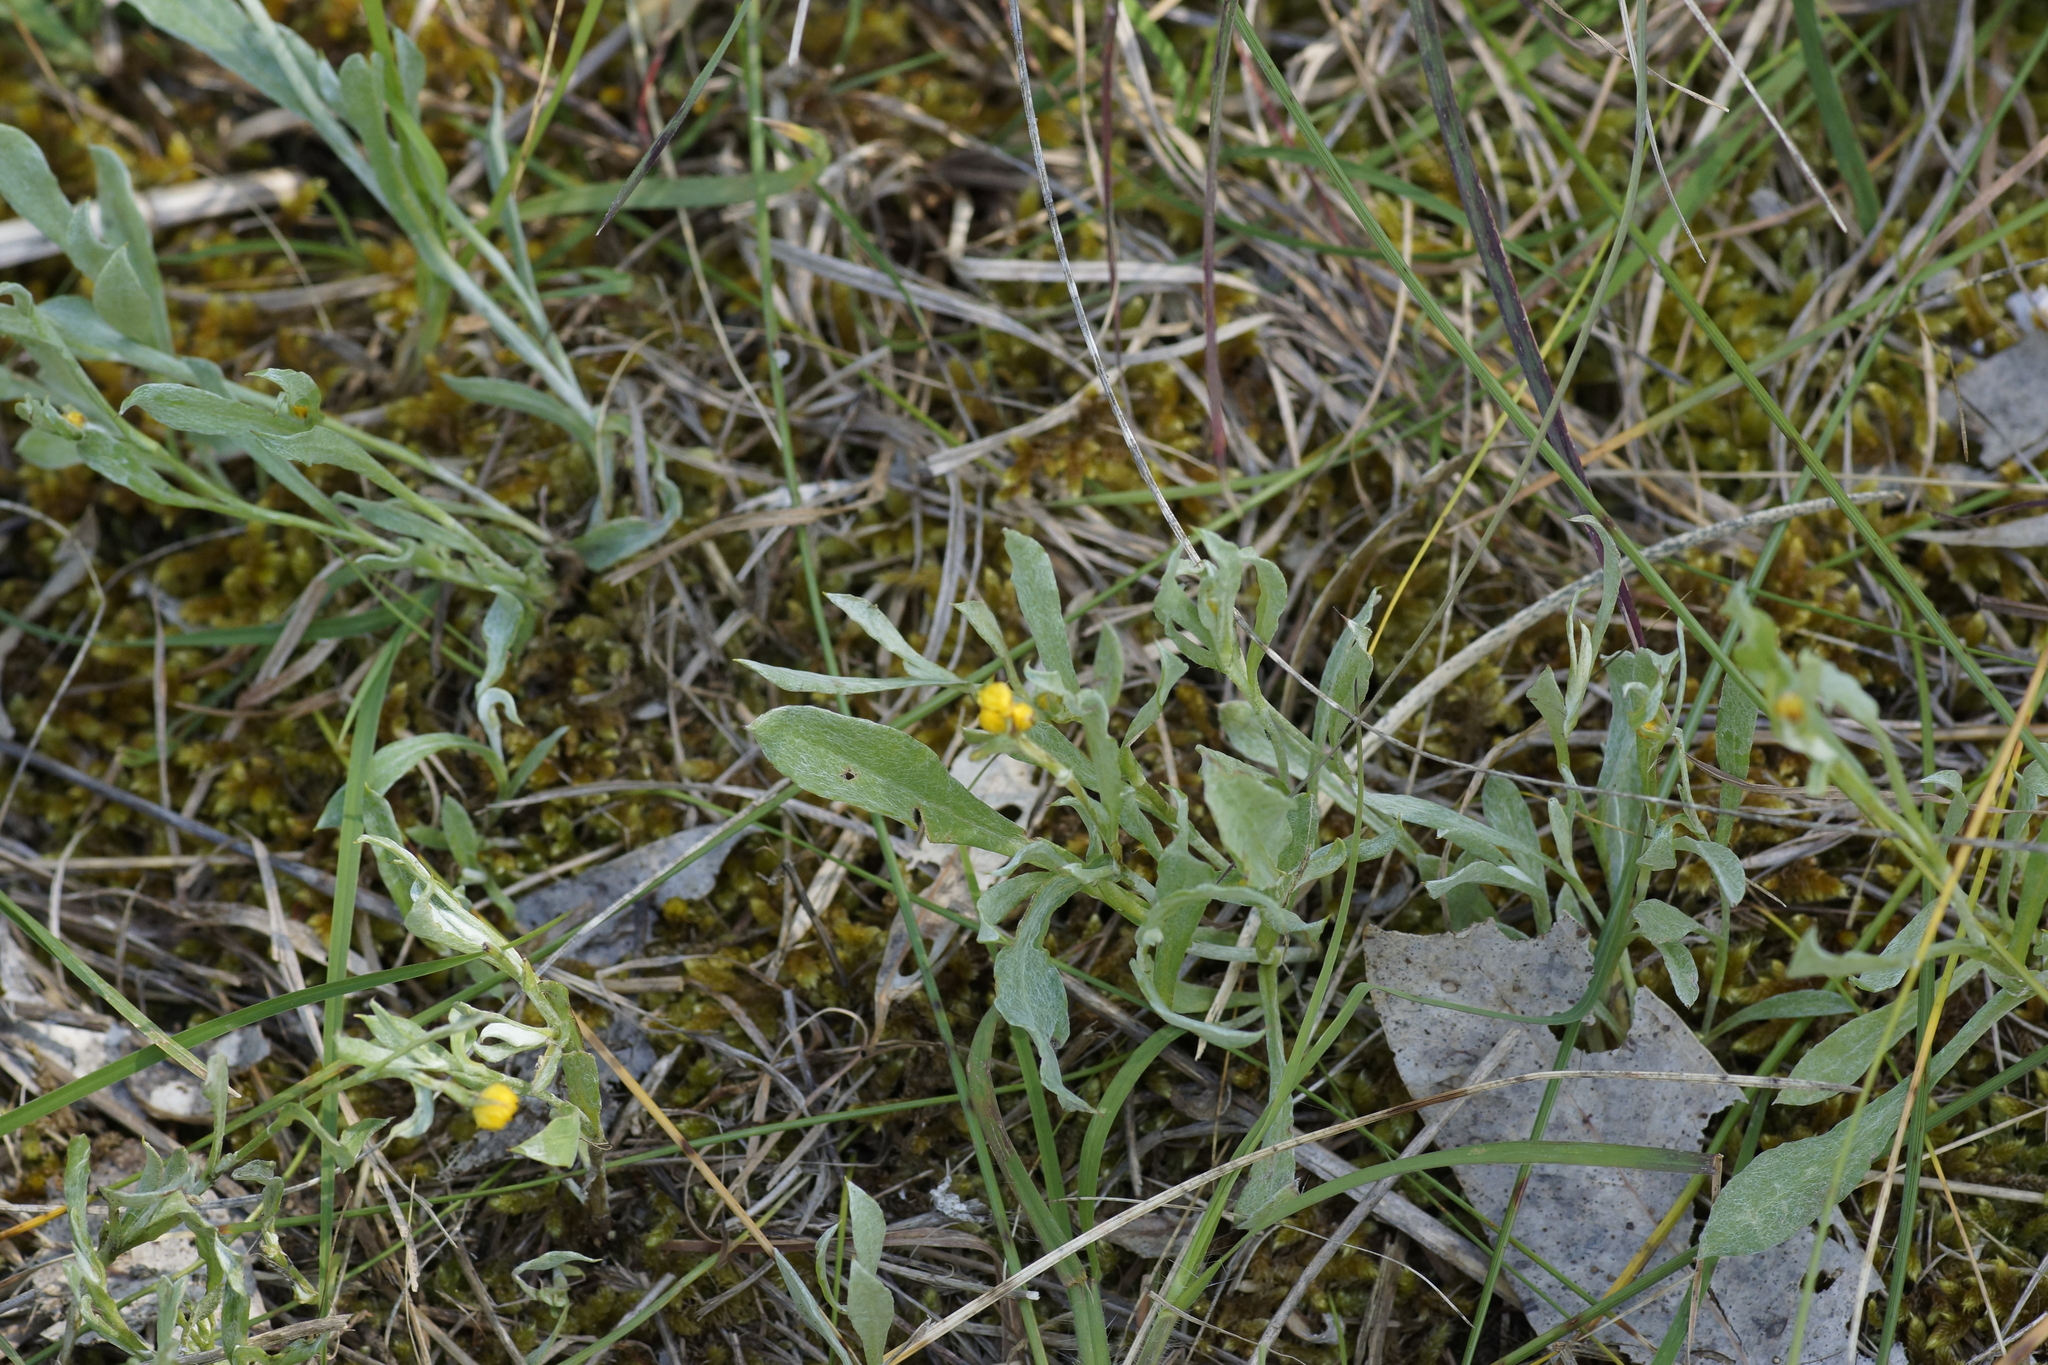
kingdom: Plantae
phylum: Tracheophyta
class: Magnoliopsida
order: Asterales
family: Asteraceae
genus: Chrysocephalum
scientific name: Chrysocephalum apiculatum
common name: Common everlasting
